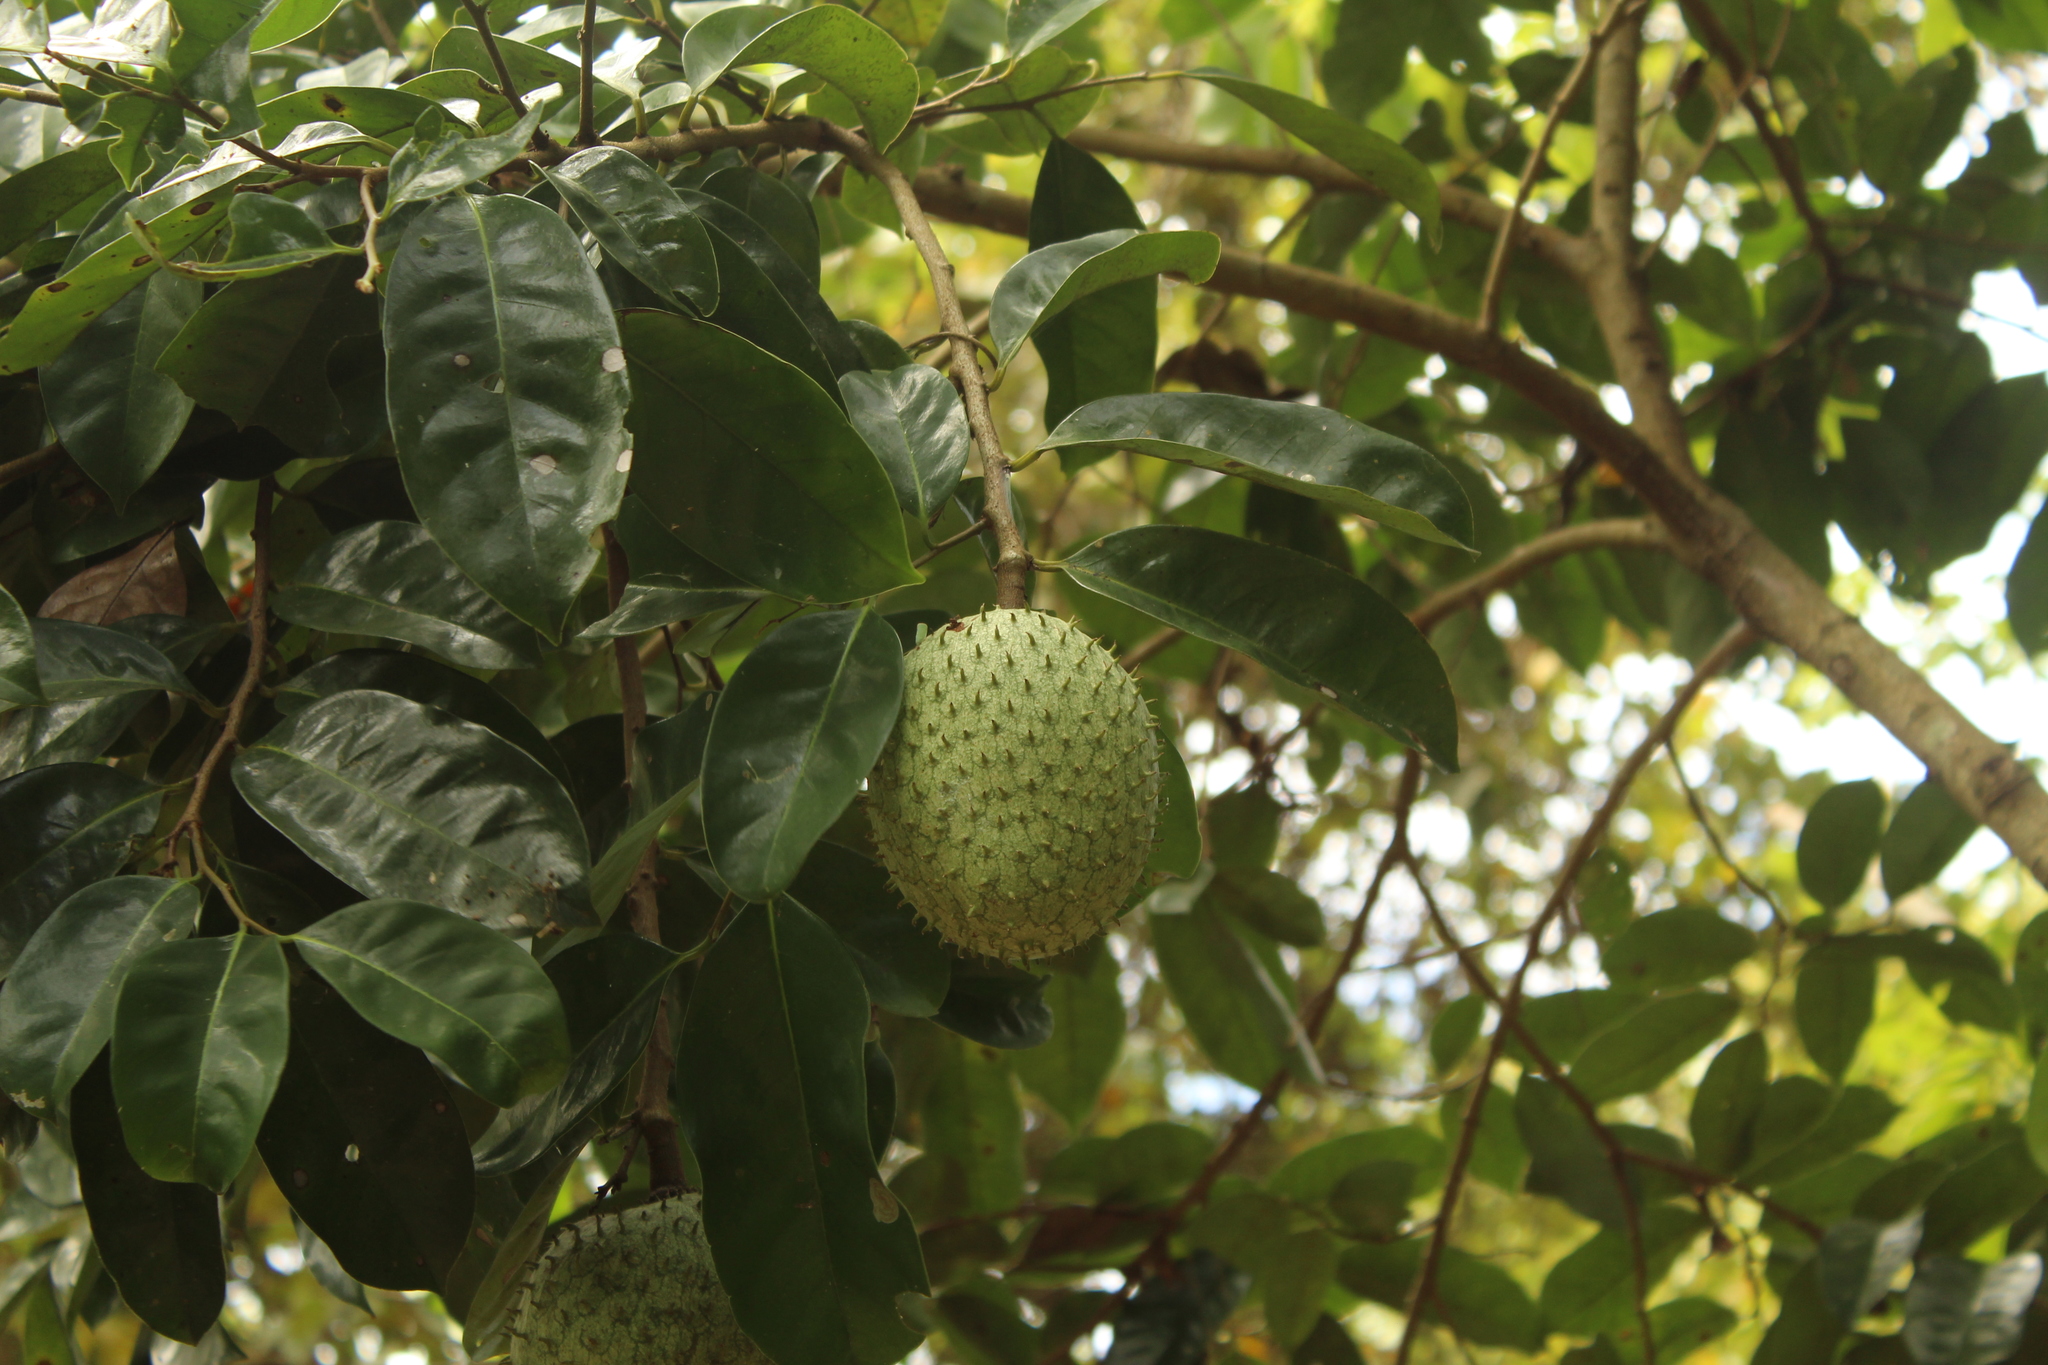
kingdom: Plantae
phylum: Tracheophyta
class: Magnoliopsida
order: Magnoliales
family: Annonaceae
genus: Annona
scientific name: Annona montana
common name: Mountain soursop
